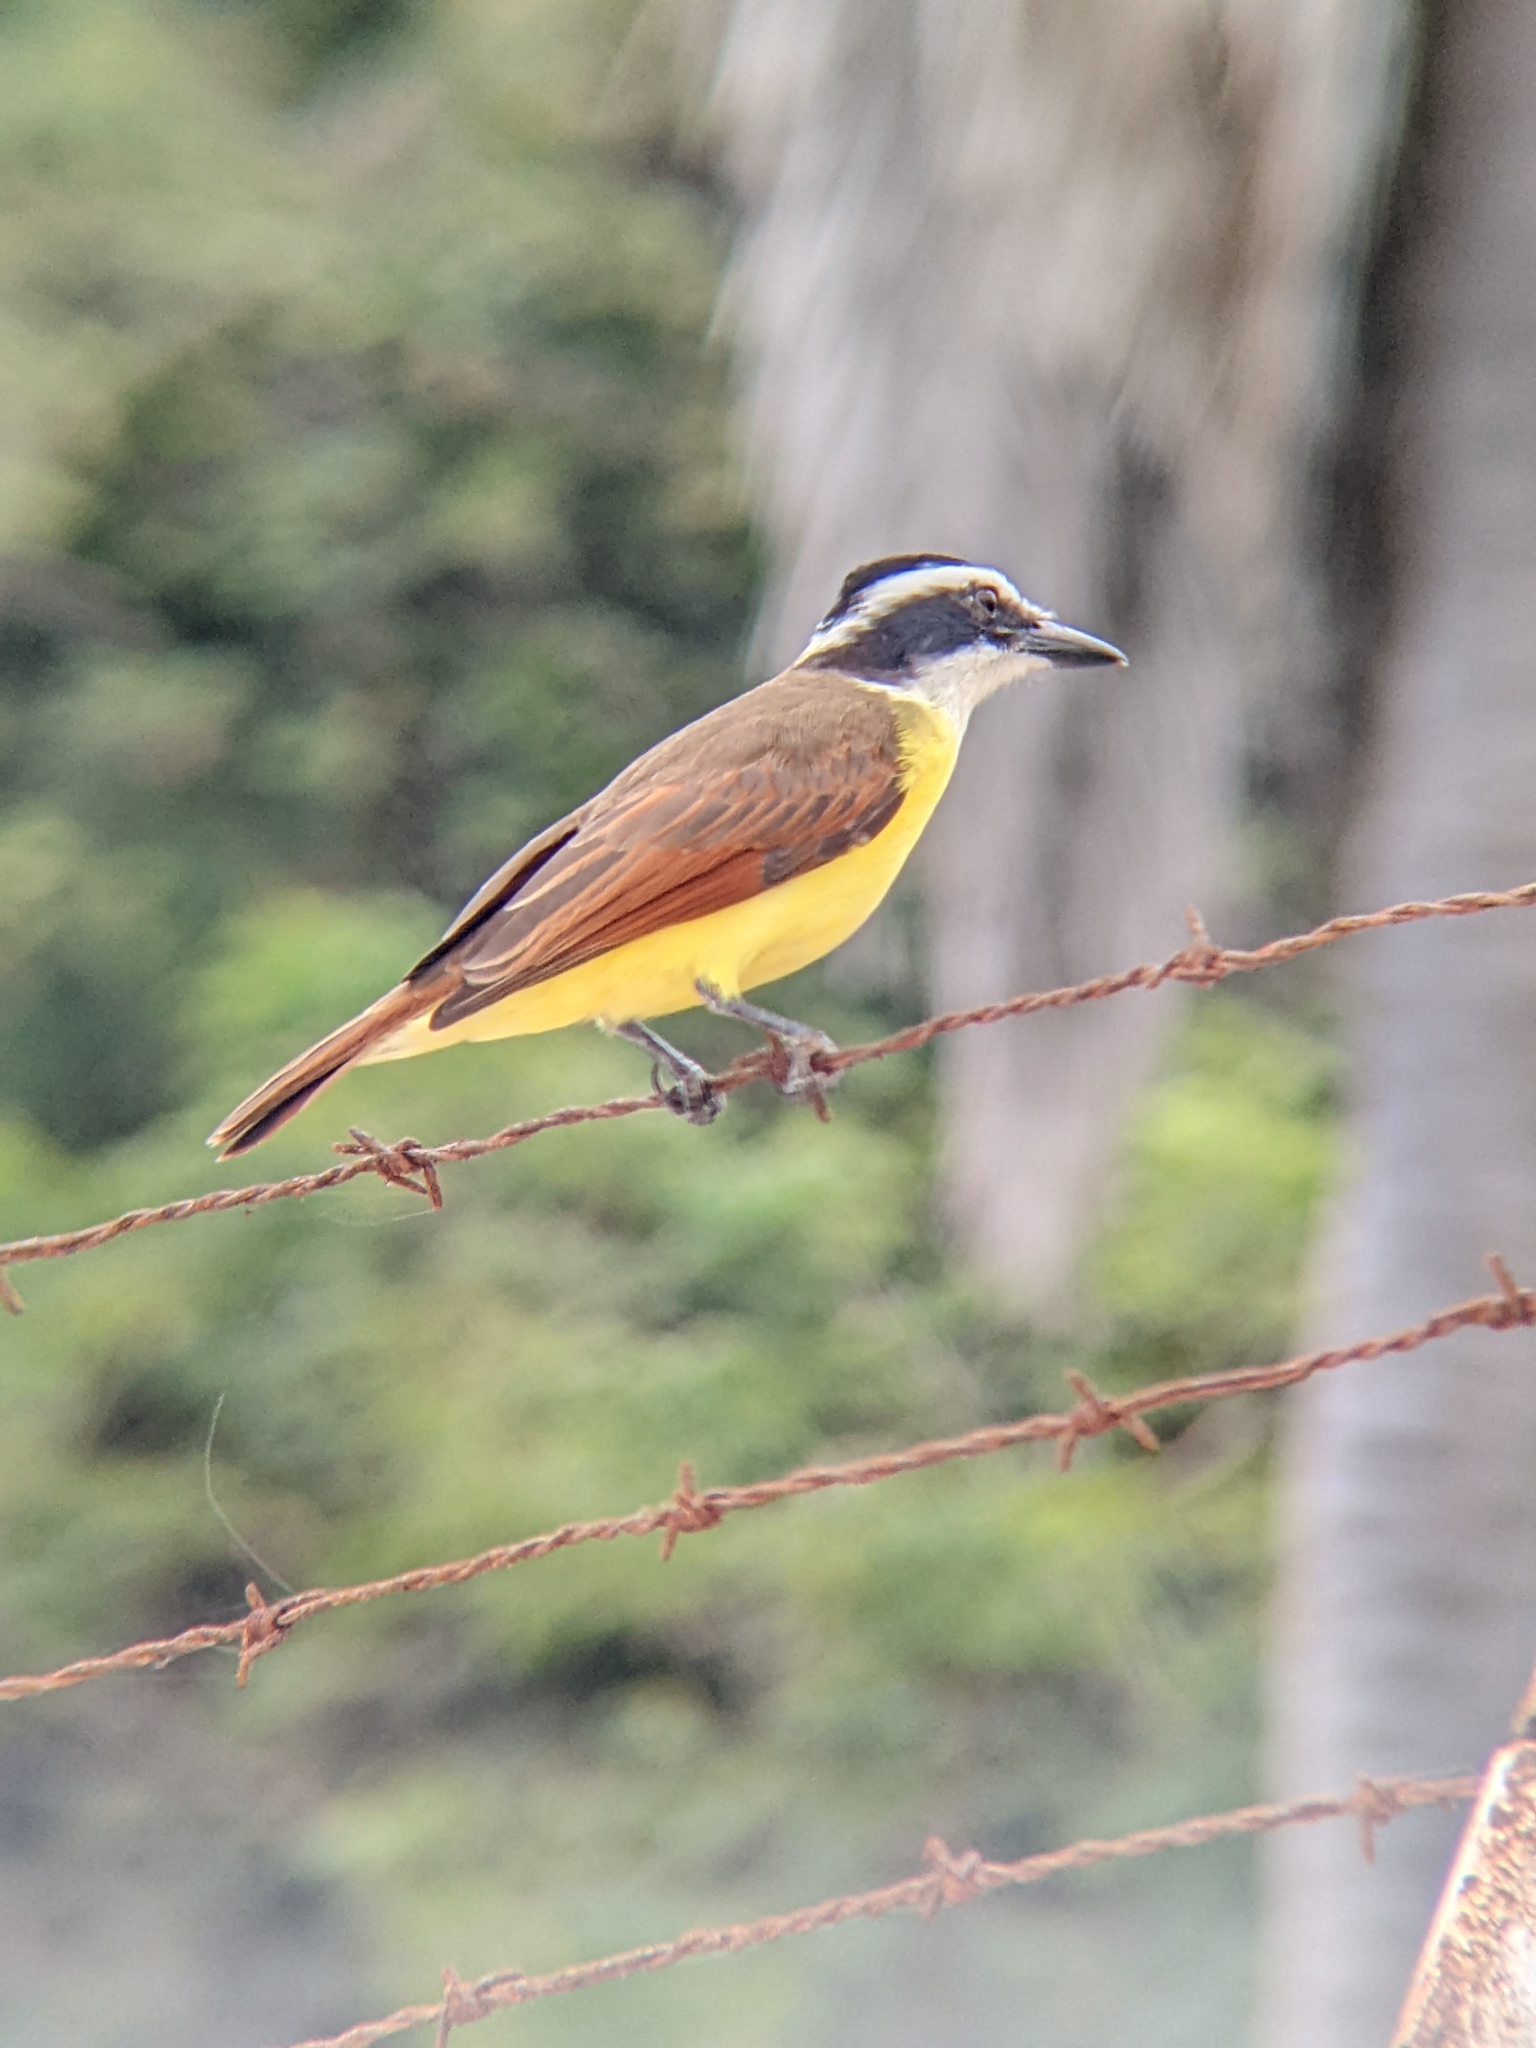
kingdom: Animalia
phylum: Chordata
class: Aves
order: Passeriformes
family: Tyrannidae
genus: Pitangus
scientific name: Pitangus sulphuratus
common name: Great kiskadee
